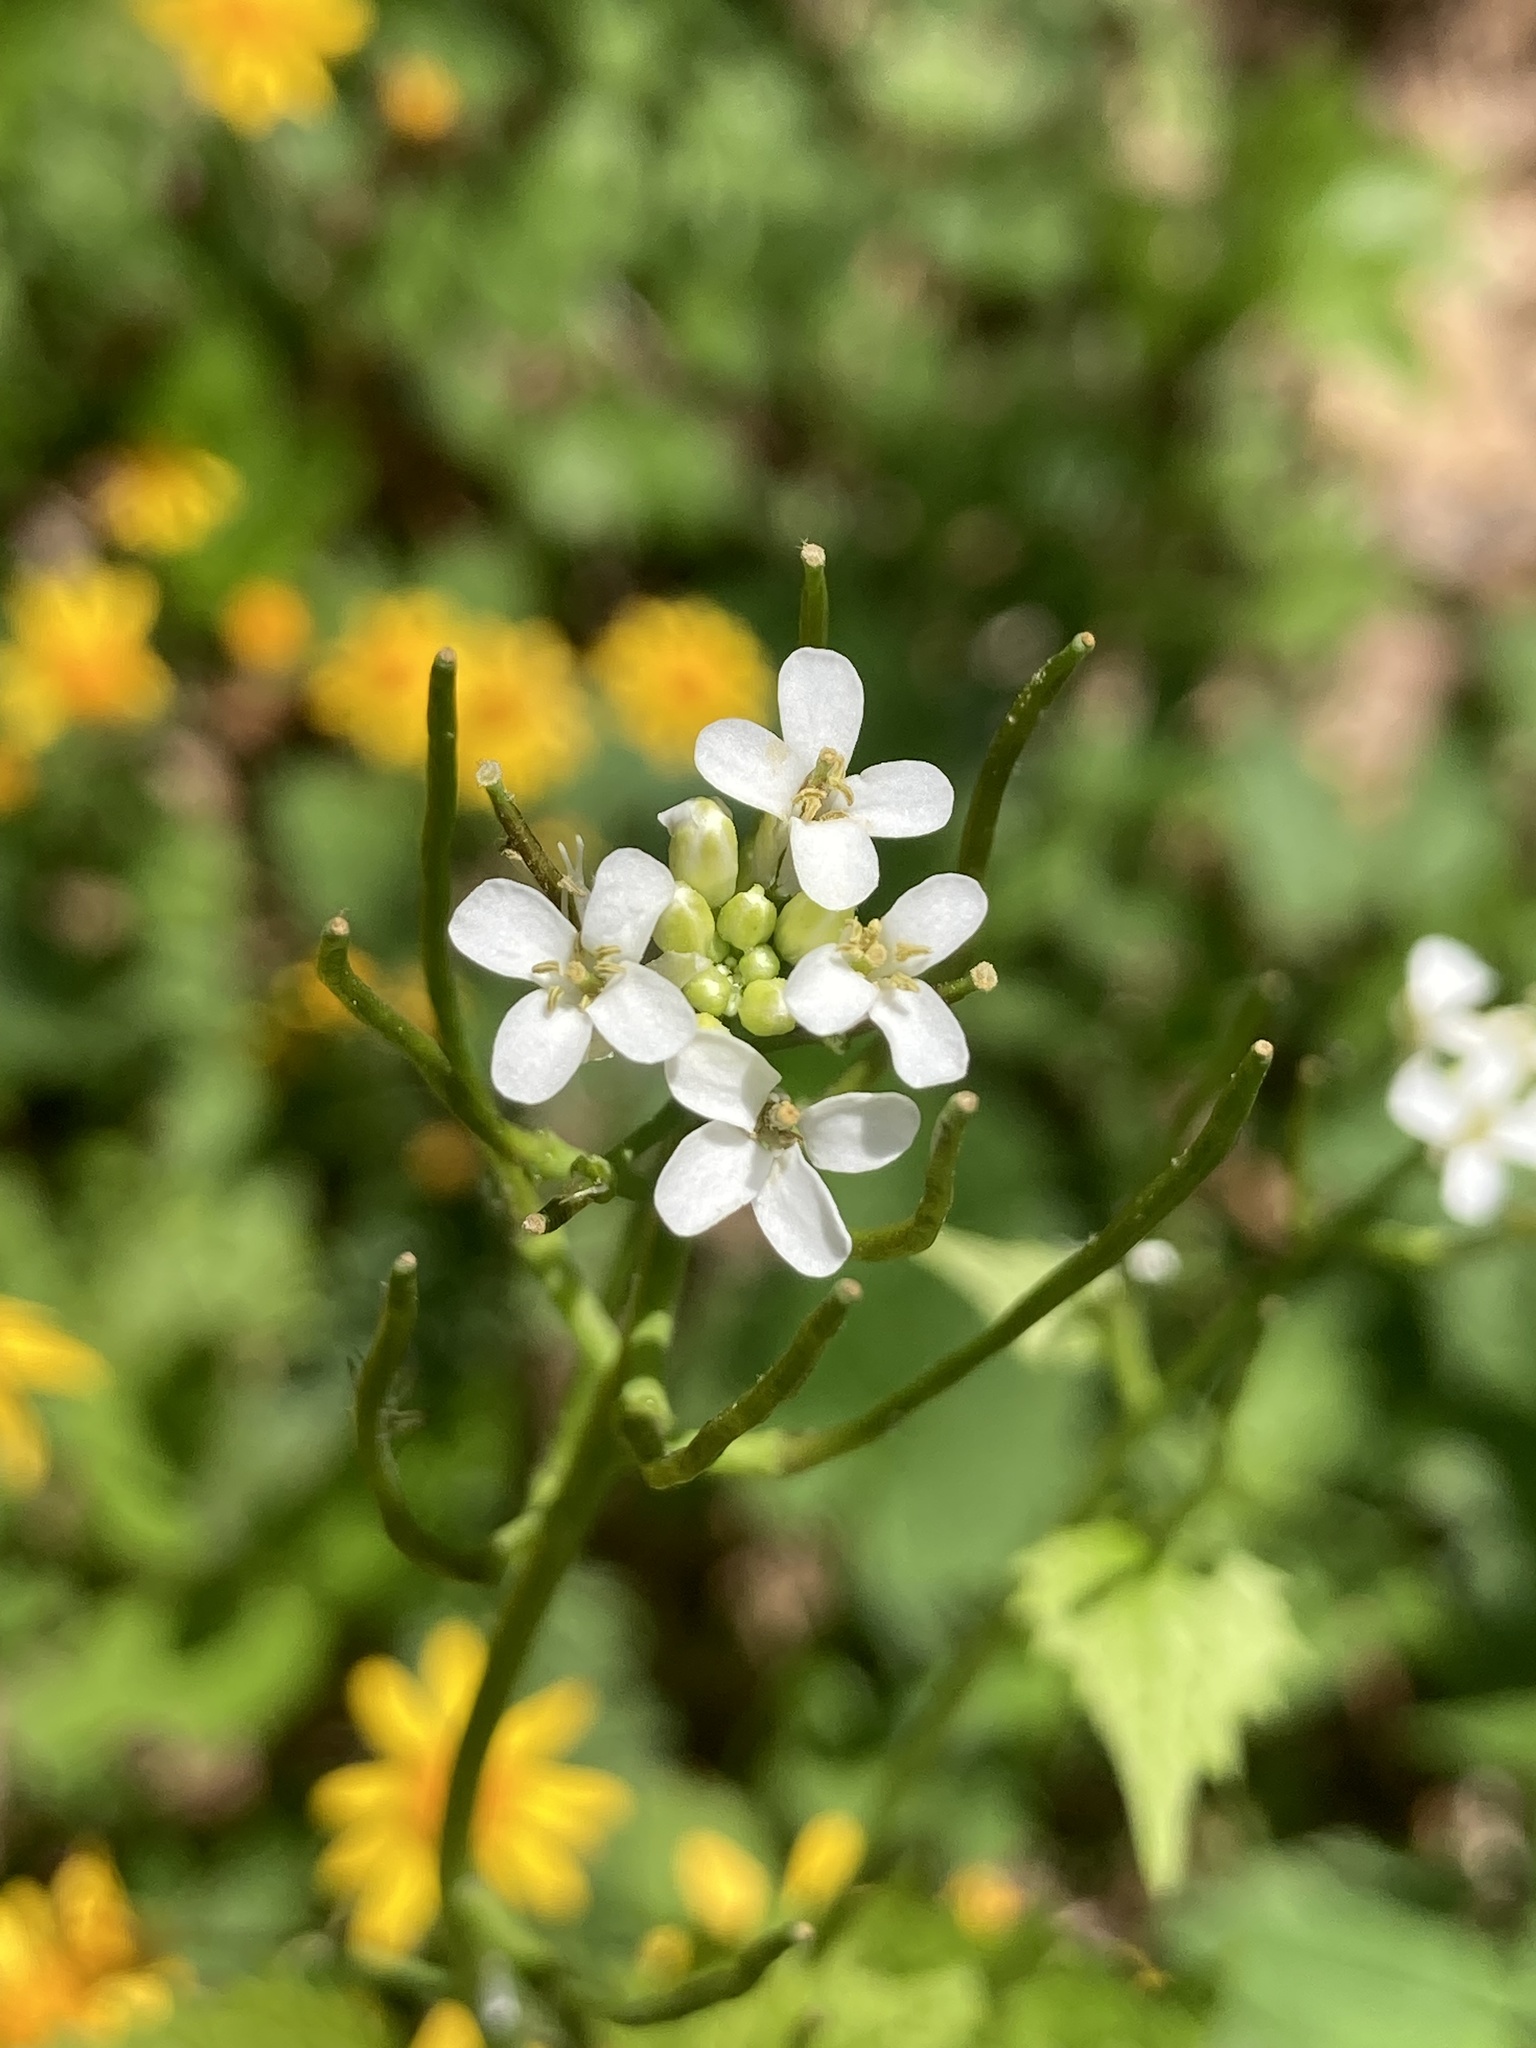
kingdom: Plantae
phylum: Tracheophyta
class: Magnoliopsida
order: Brassicales
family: Brassicaceae
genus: Alliaria
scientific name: Alliaria petiolata
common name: Garlic mustard
